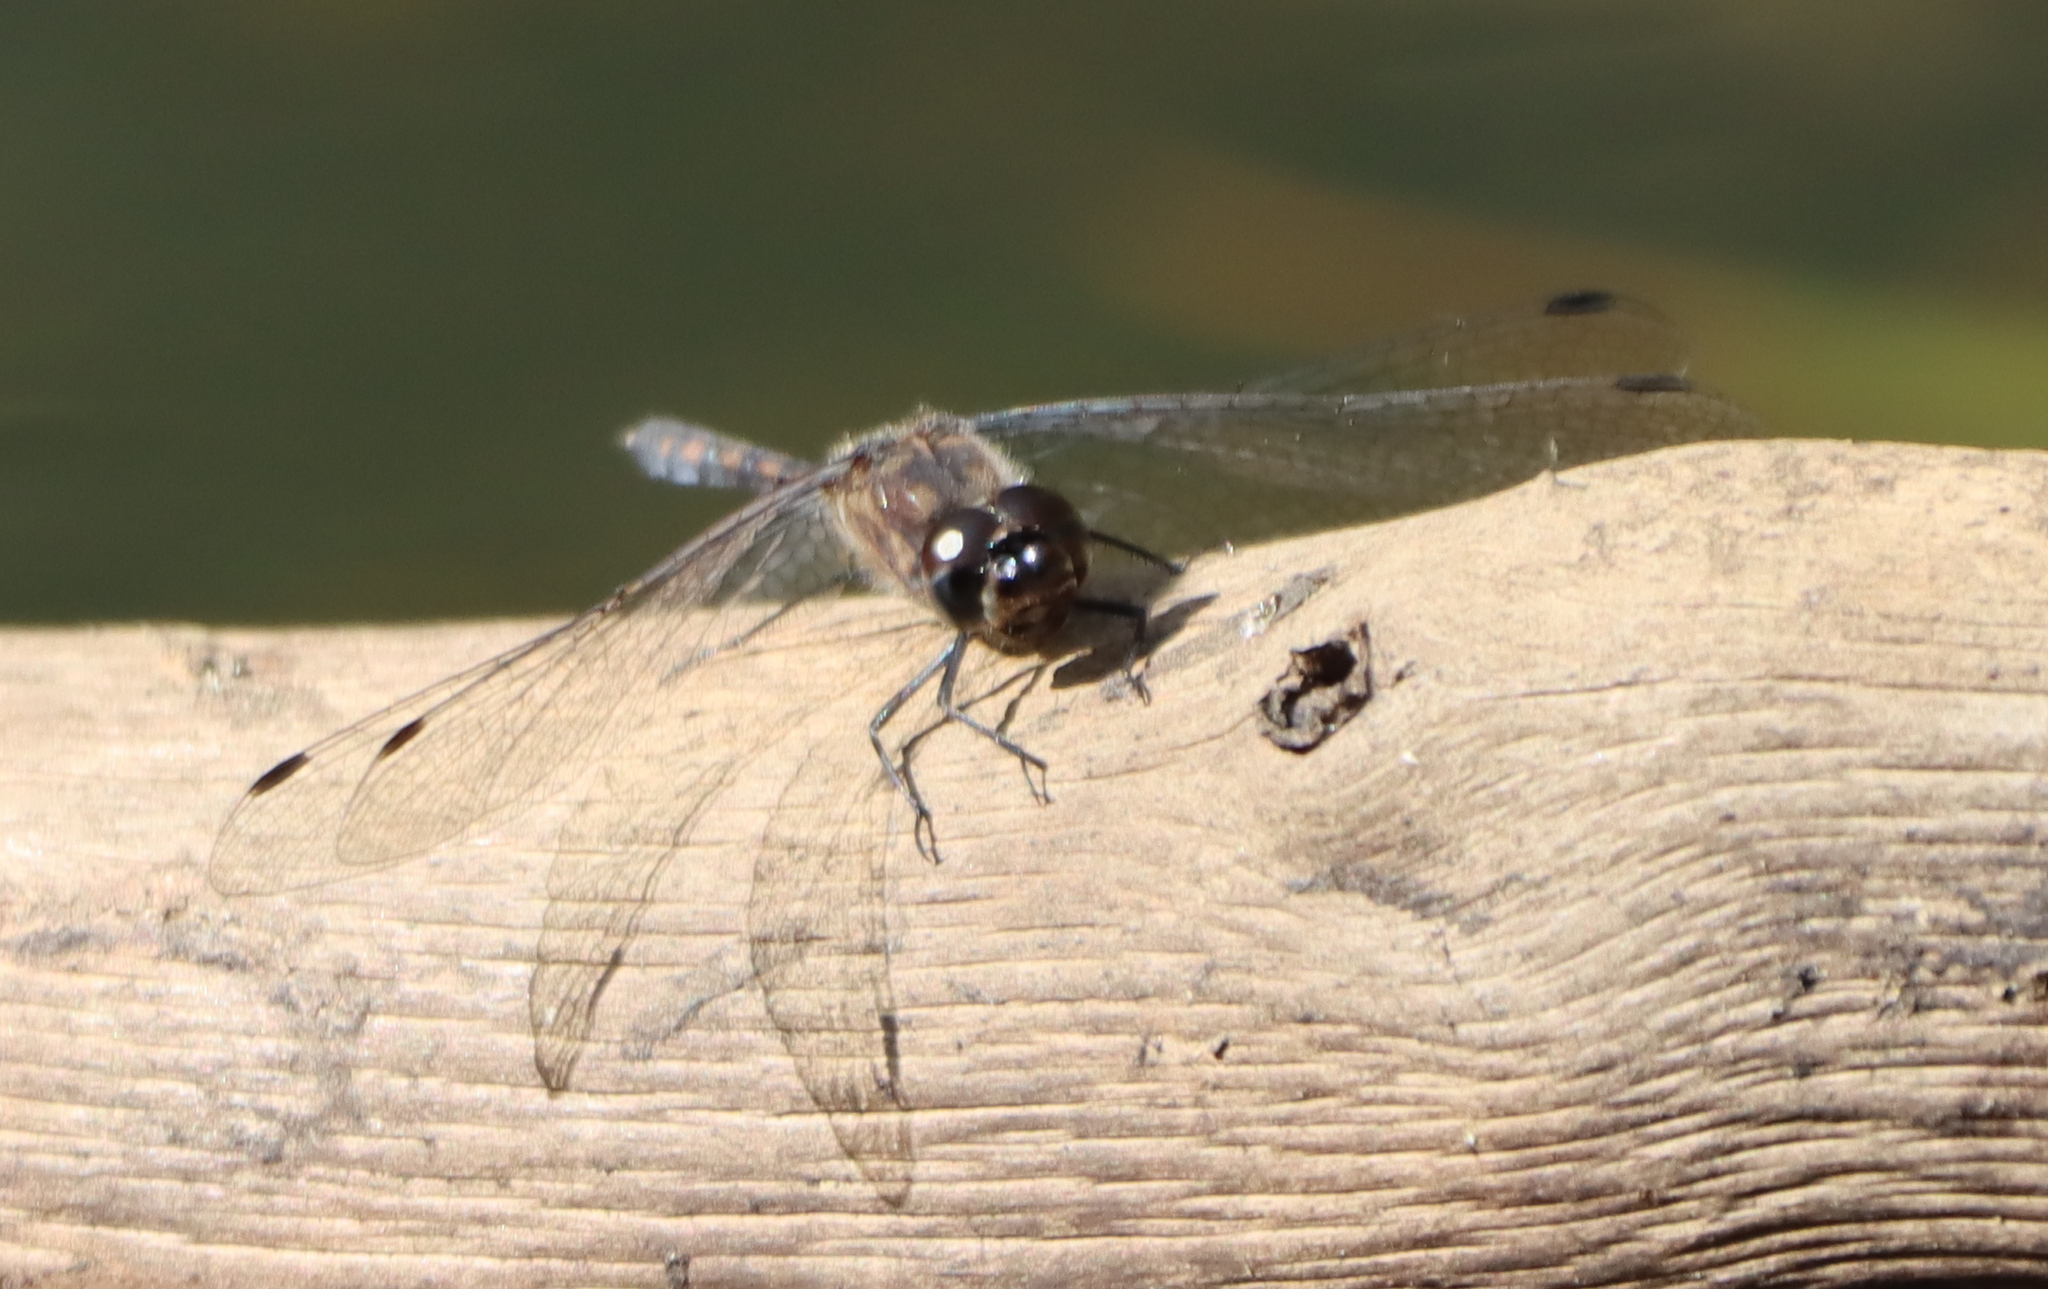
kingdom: Animalia
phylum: Arthropoda
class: Insecta
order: Odonata
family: Libellulidae
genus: Sympetrum
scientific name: Sympetrum danae
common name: Black darter
